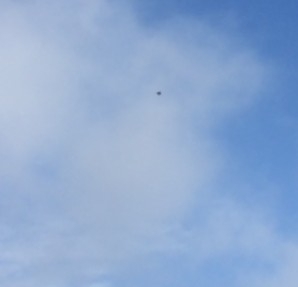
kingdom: Animalia
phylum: Chordata
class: Aves
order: Passeriformes
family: Hirundinidae
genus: Hirundo
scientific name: Hirundo rustica
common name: Barn swallow
